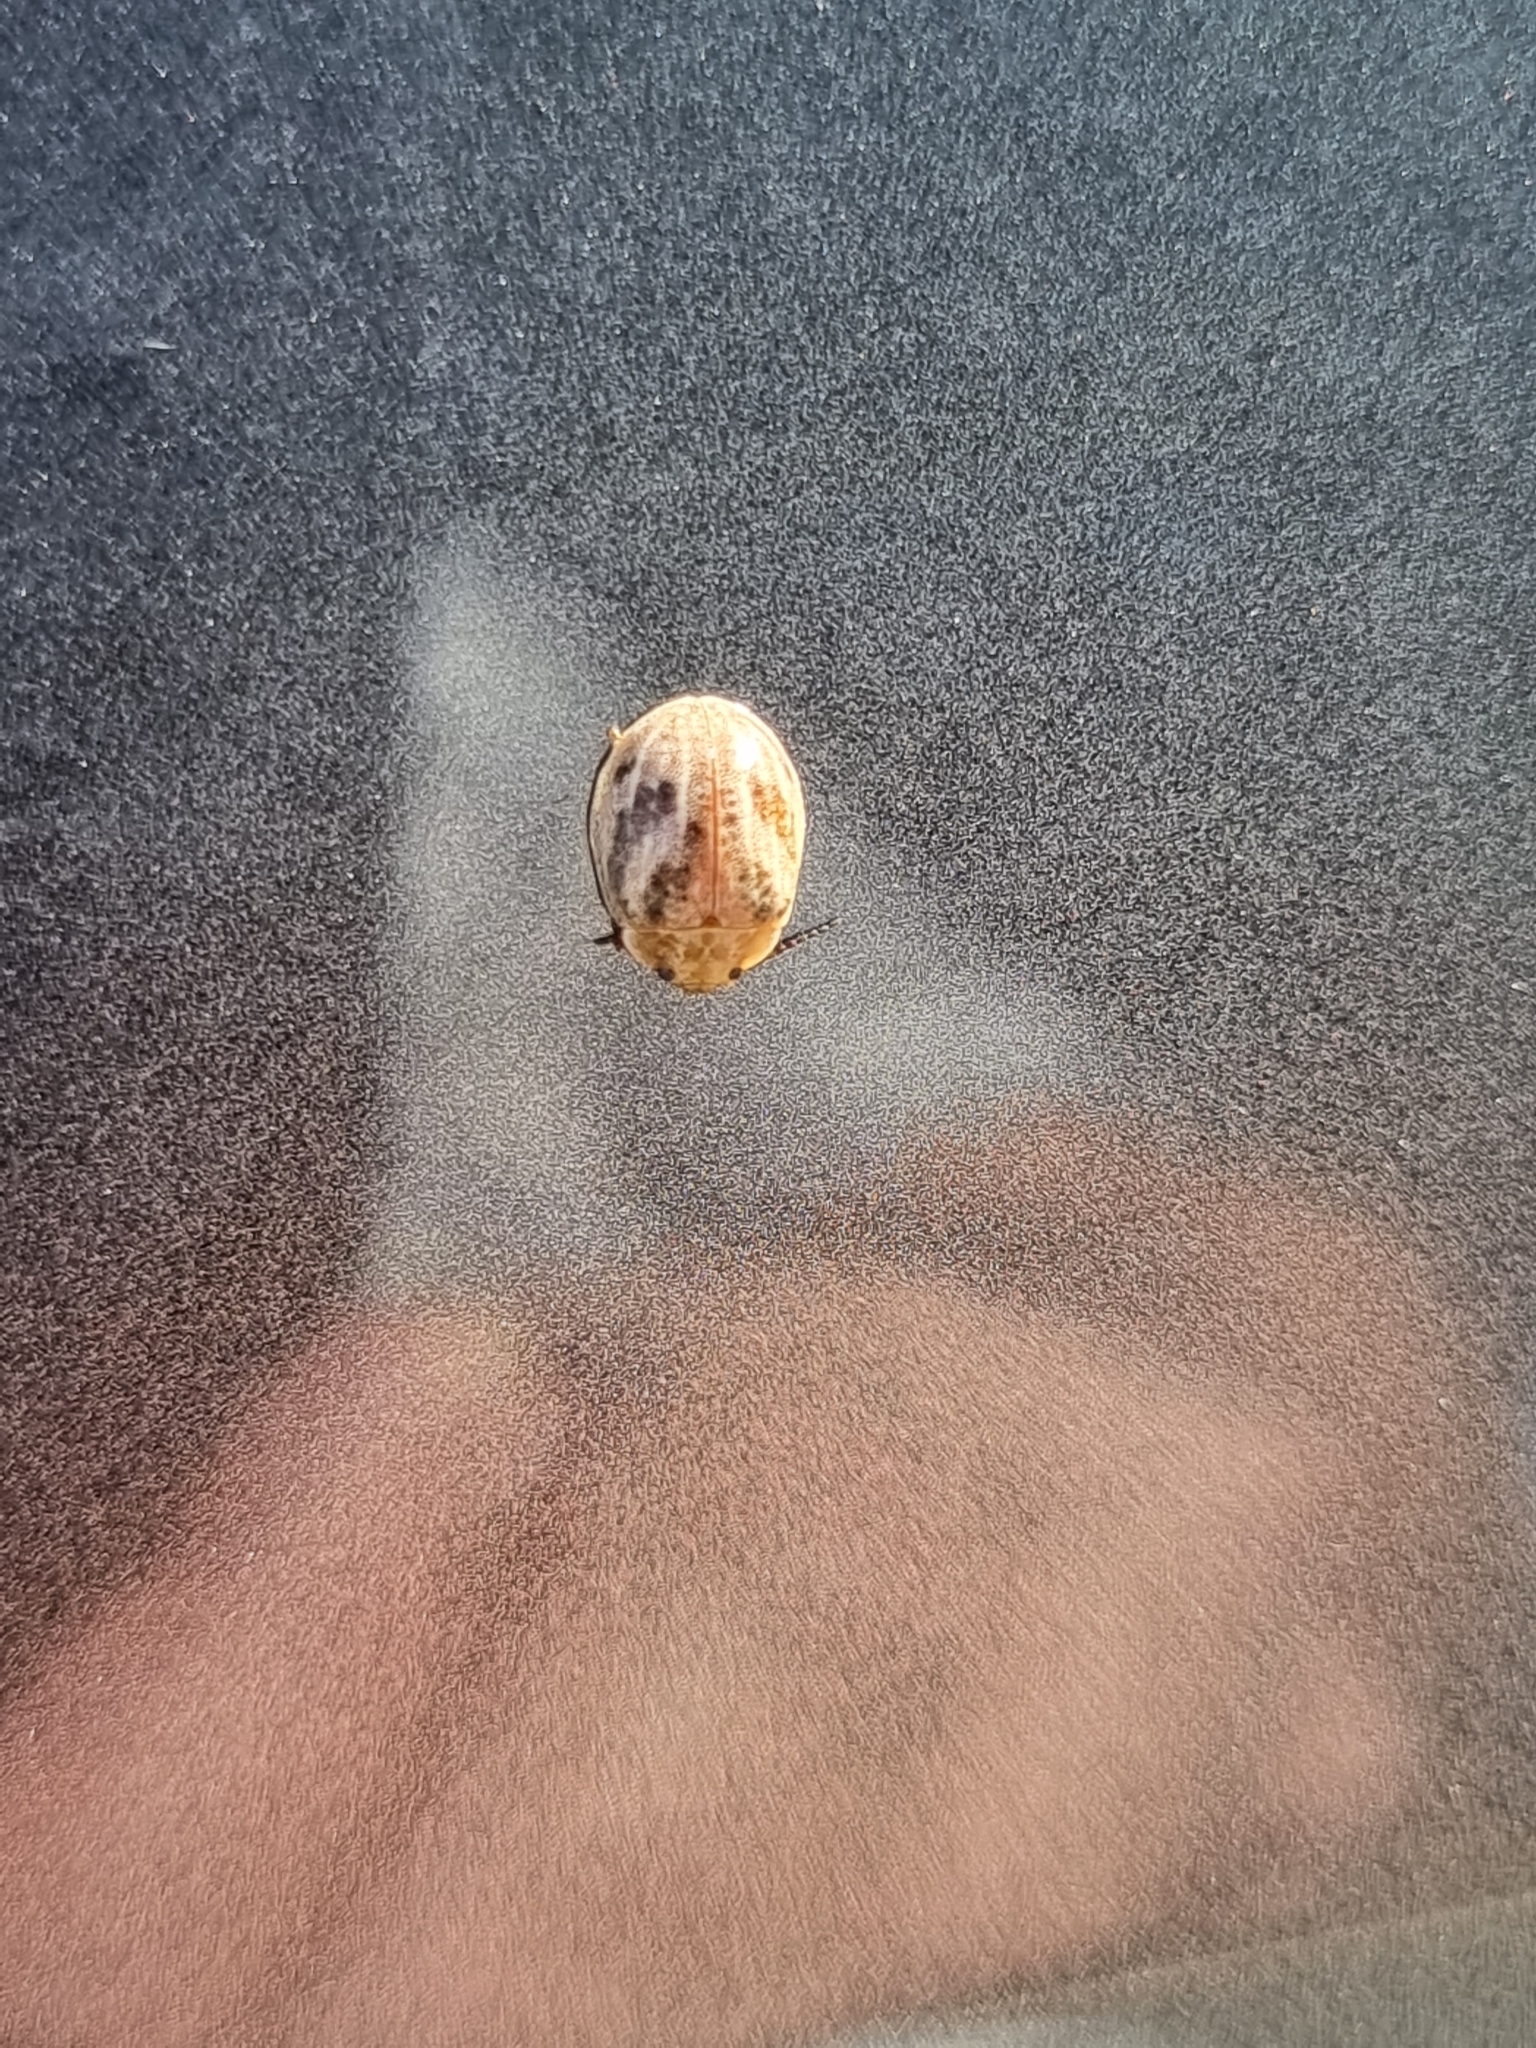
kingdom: Animalia
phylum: Arthropoda
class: Insecta
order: Coleoptera
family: Chrysomelidae
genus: Paropsisterna
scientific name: Paropsisterna
